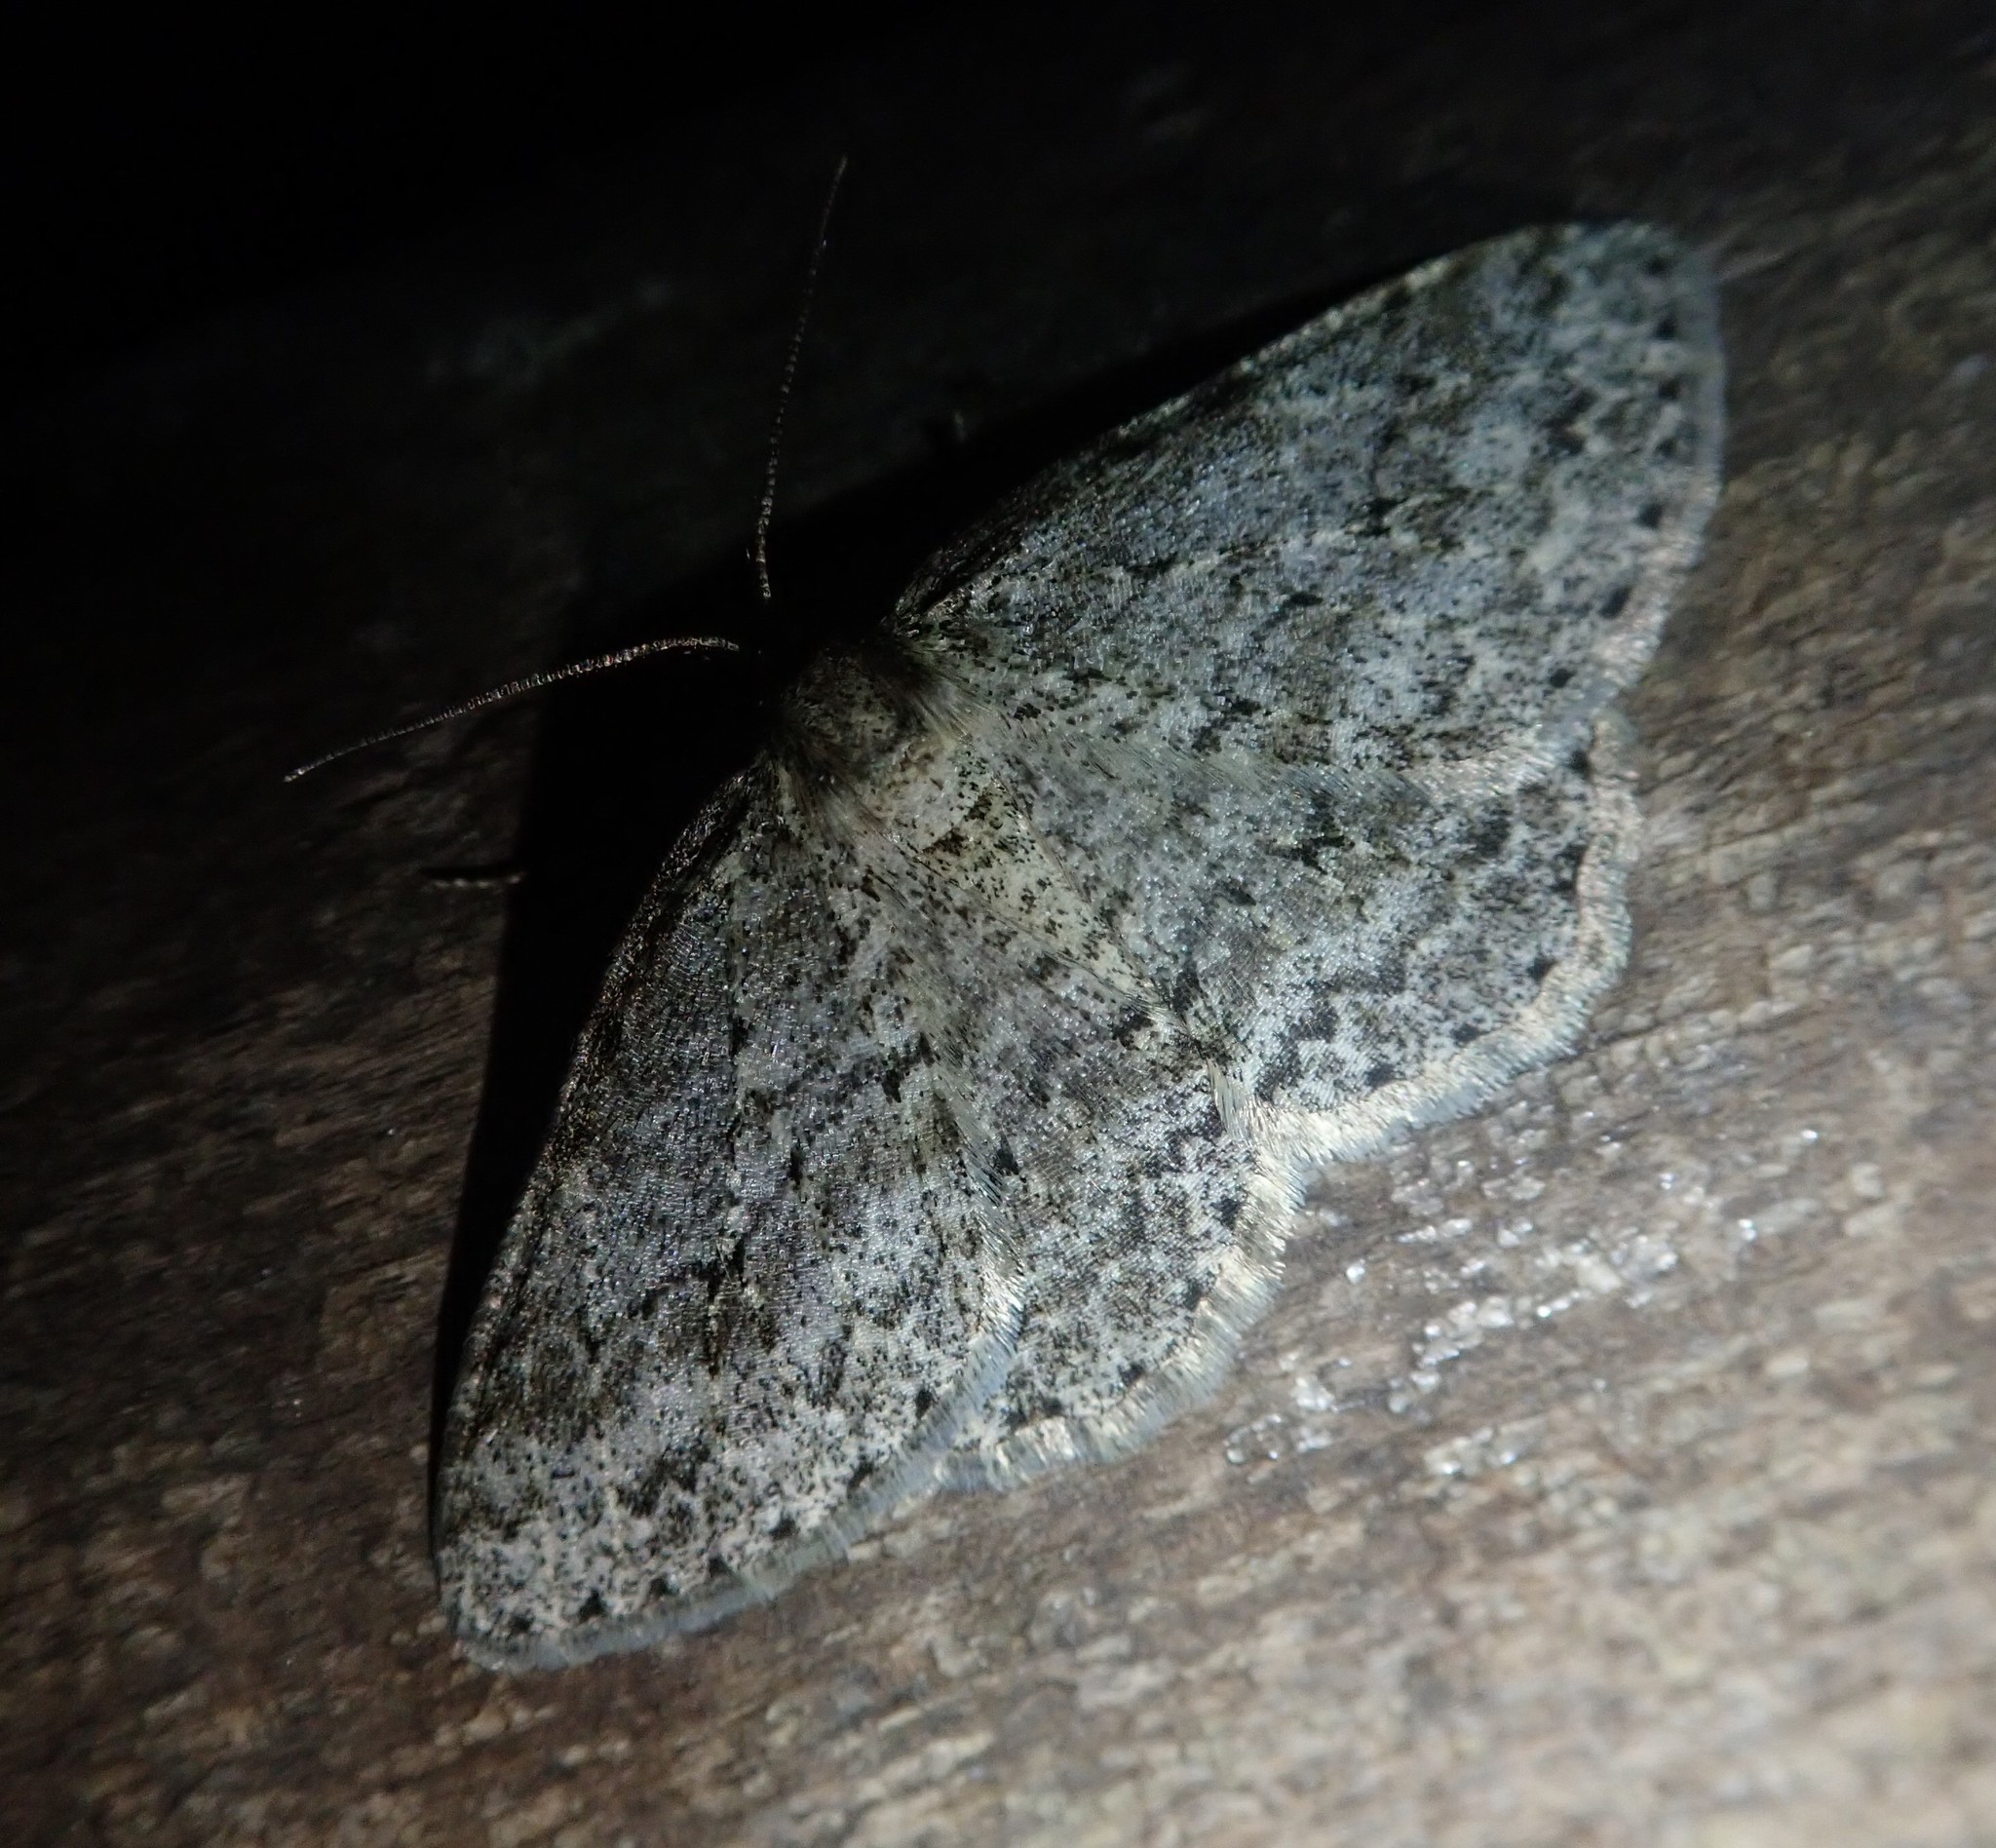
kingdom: Animalia
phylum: Arthropoda
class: Insecta
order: Lepidoptera
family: Geometridae
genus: Ectropis
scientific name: Ectropis crepuscularia
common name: Engrailed
